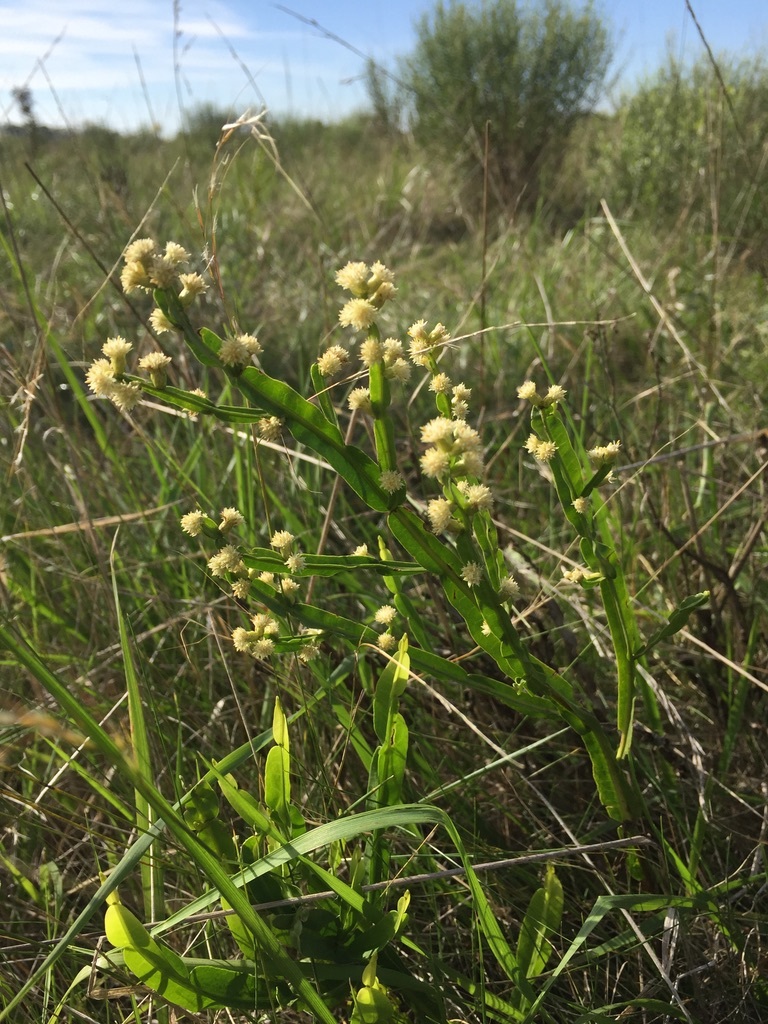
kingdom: Plantae
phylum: Tracheophyta
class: Magnoliopsida
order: Asterales
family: Asteraceae
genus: Baccharis
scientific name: Baccharis trimera
